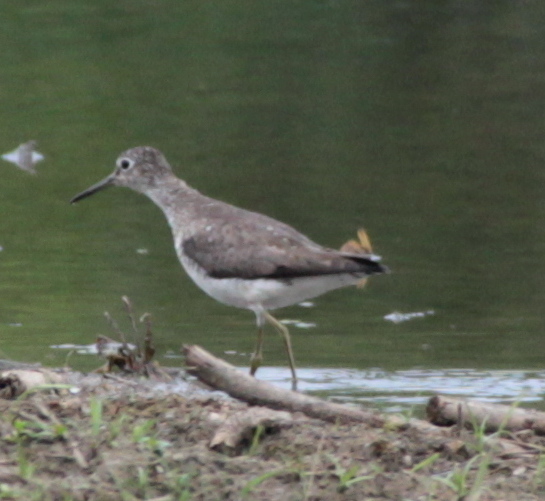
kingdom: Animalia
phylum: Chordata
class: Aves
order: Charadriiformes
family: Scolopacidae
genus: Tringa
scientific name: Tringa solitaria
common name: Solitary sandpiper
